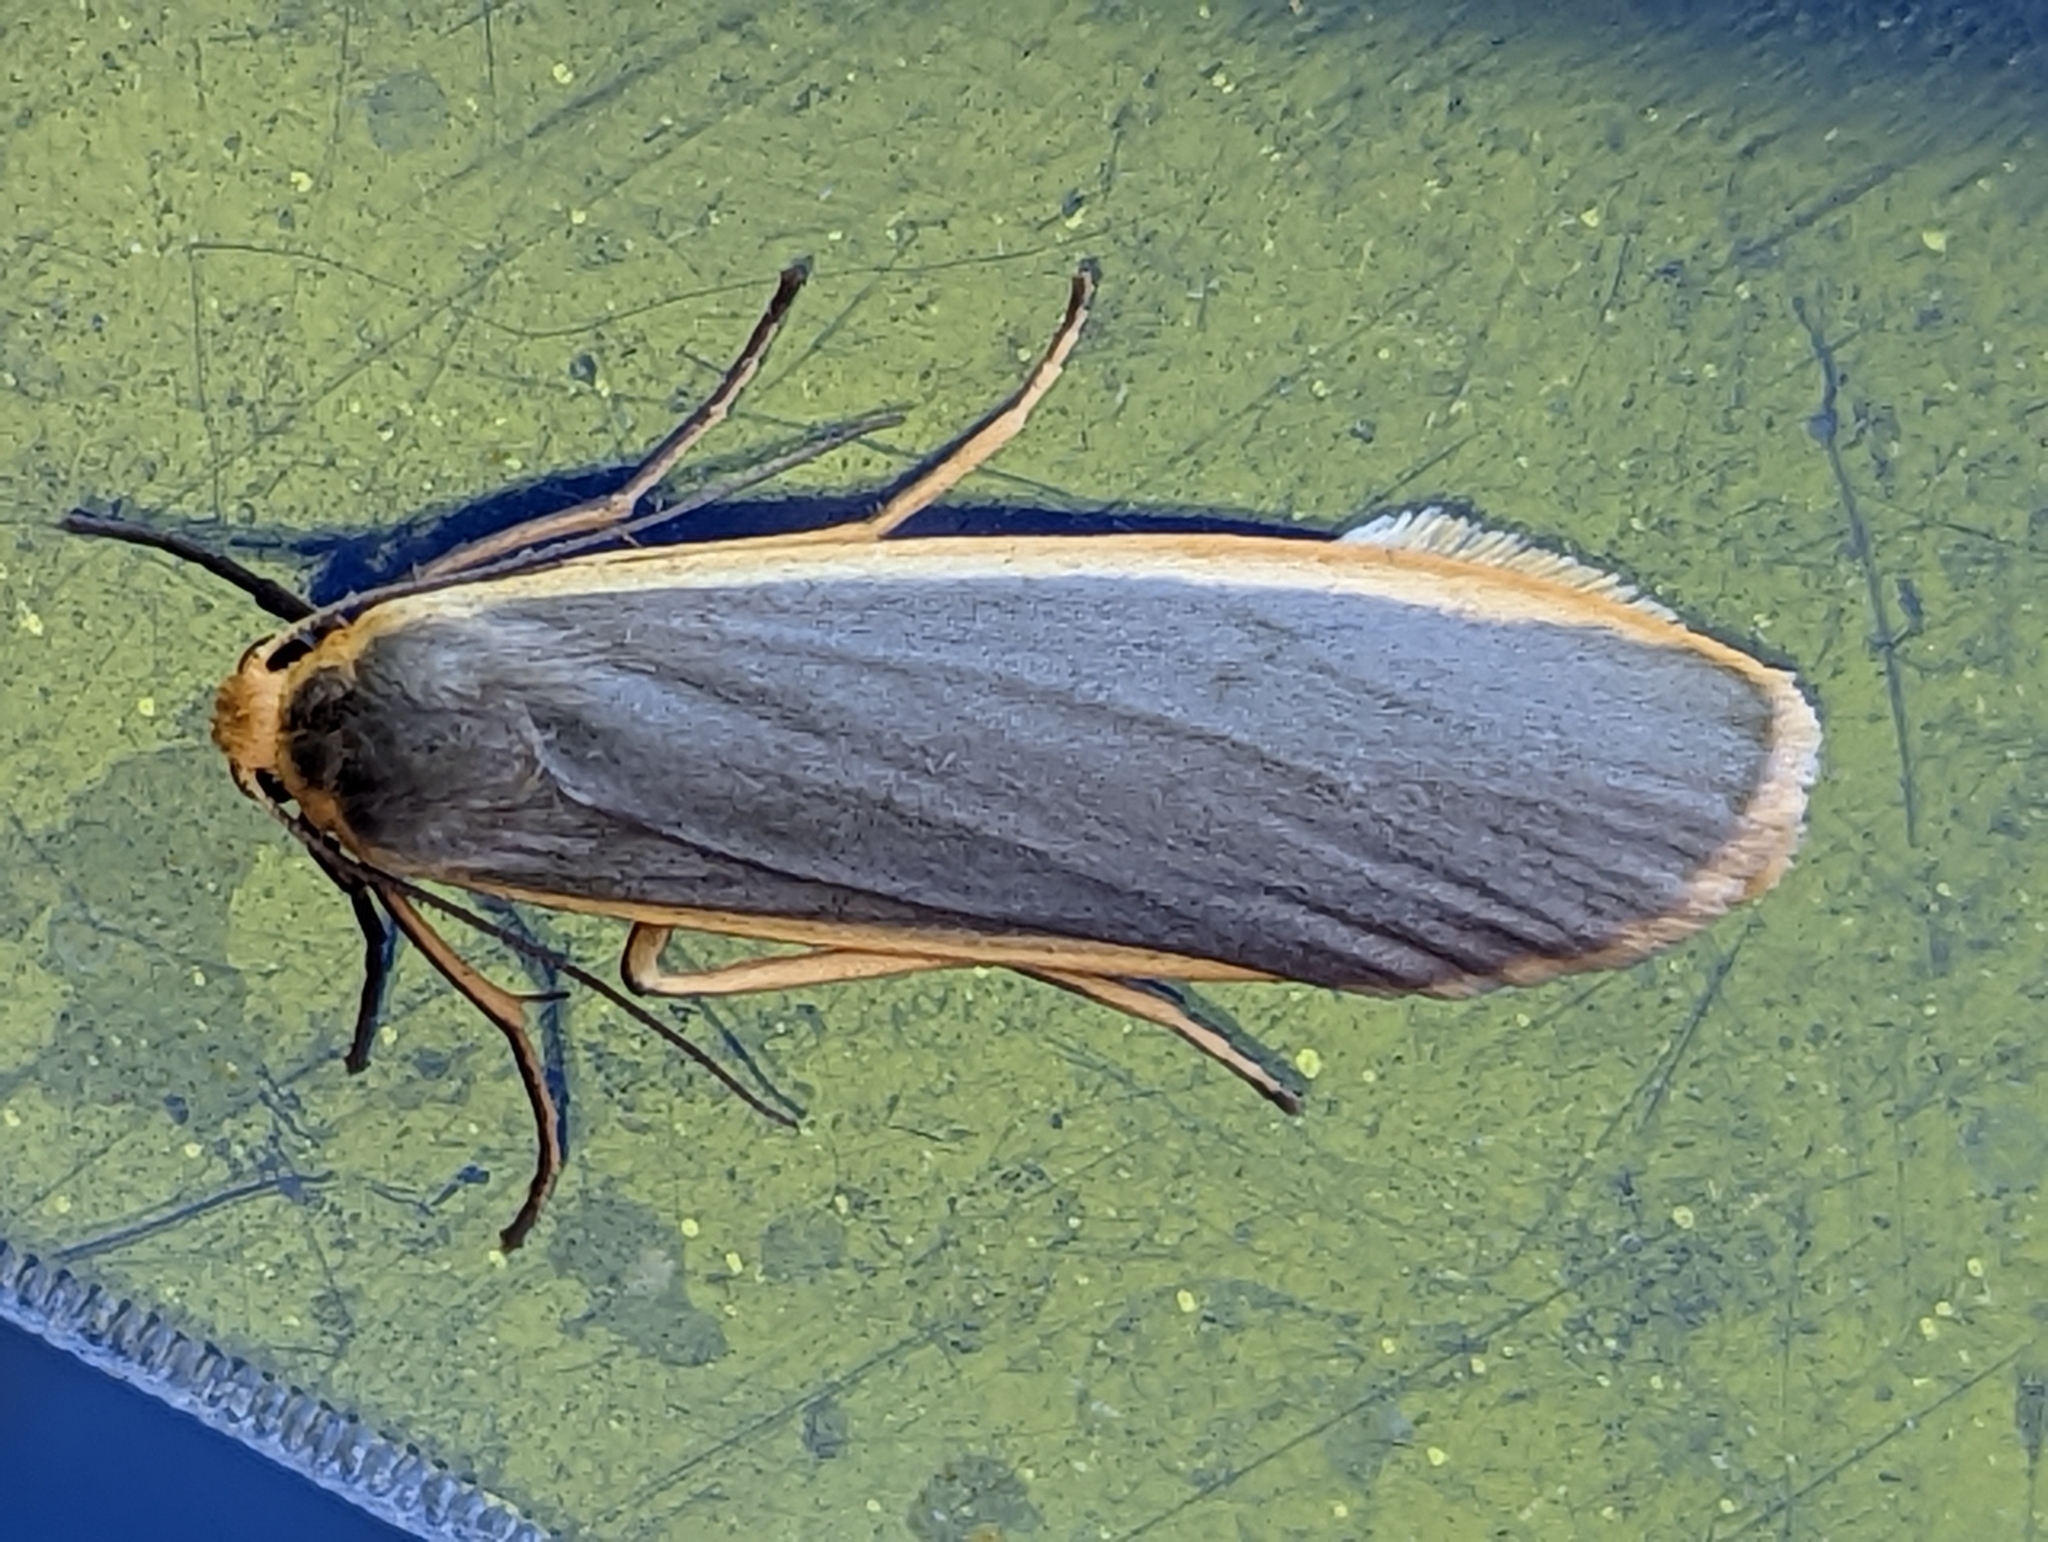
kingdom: Animalia
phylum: Arthropoda
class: Insecta
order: Lepidoptera
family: Erebidae
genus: Nyea
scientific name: Nyea lurideola
